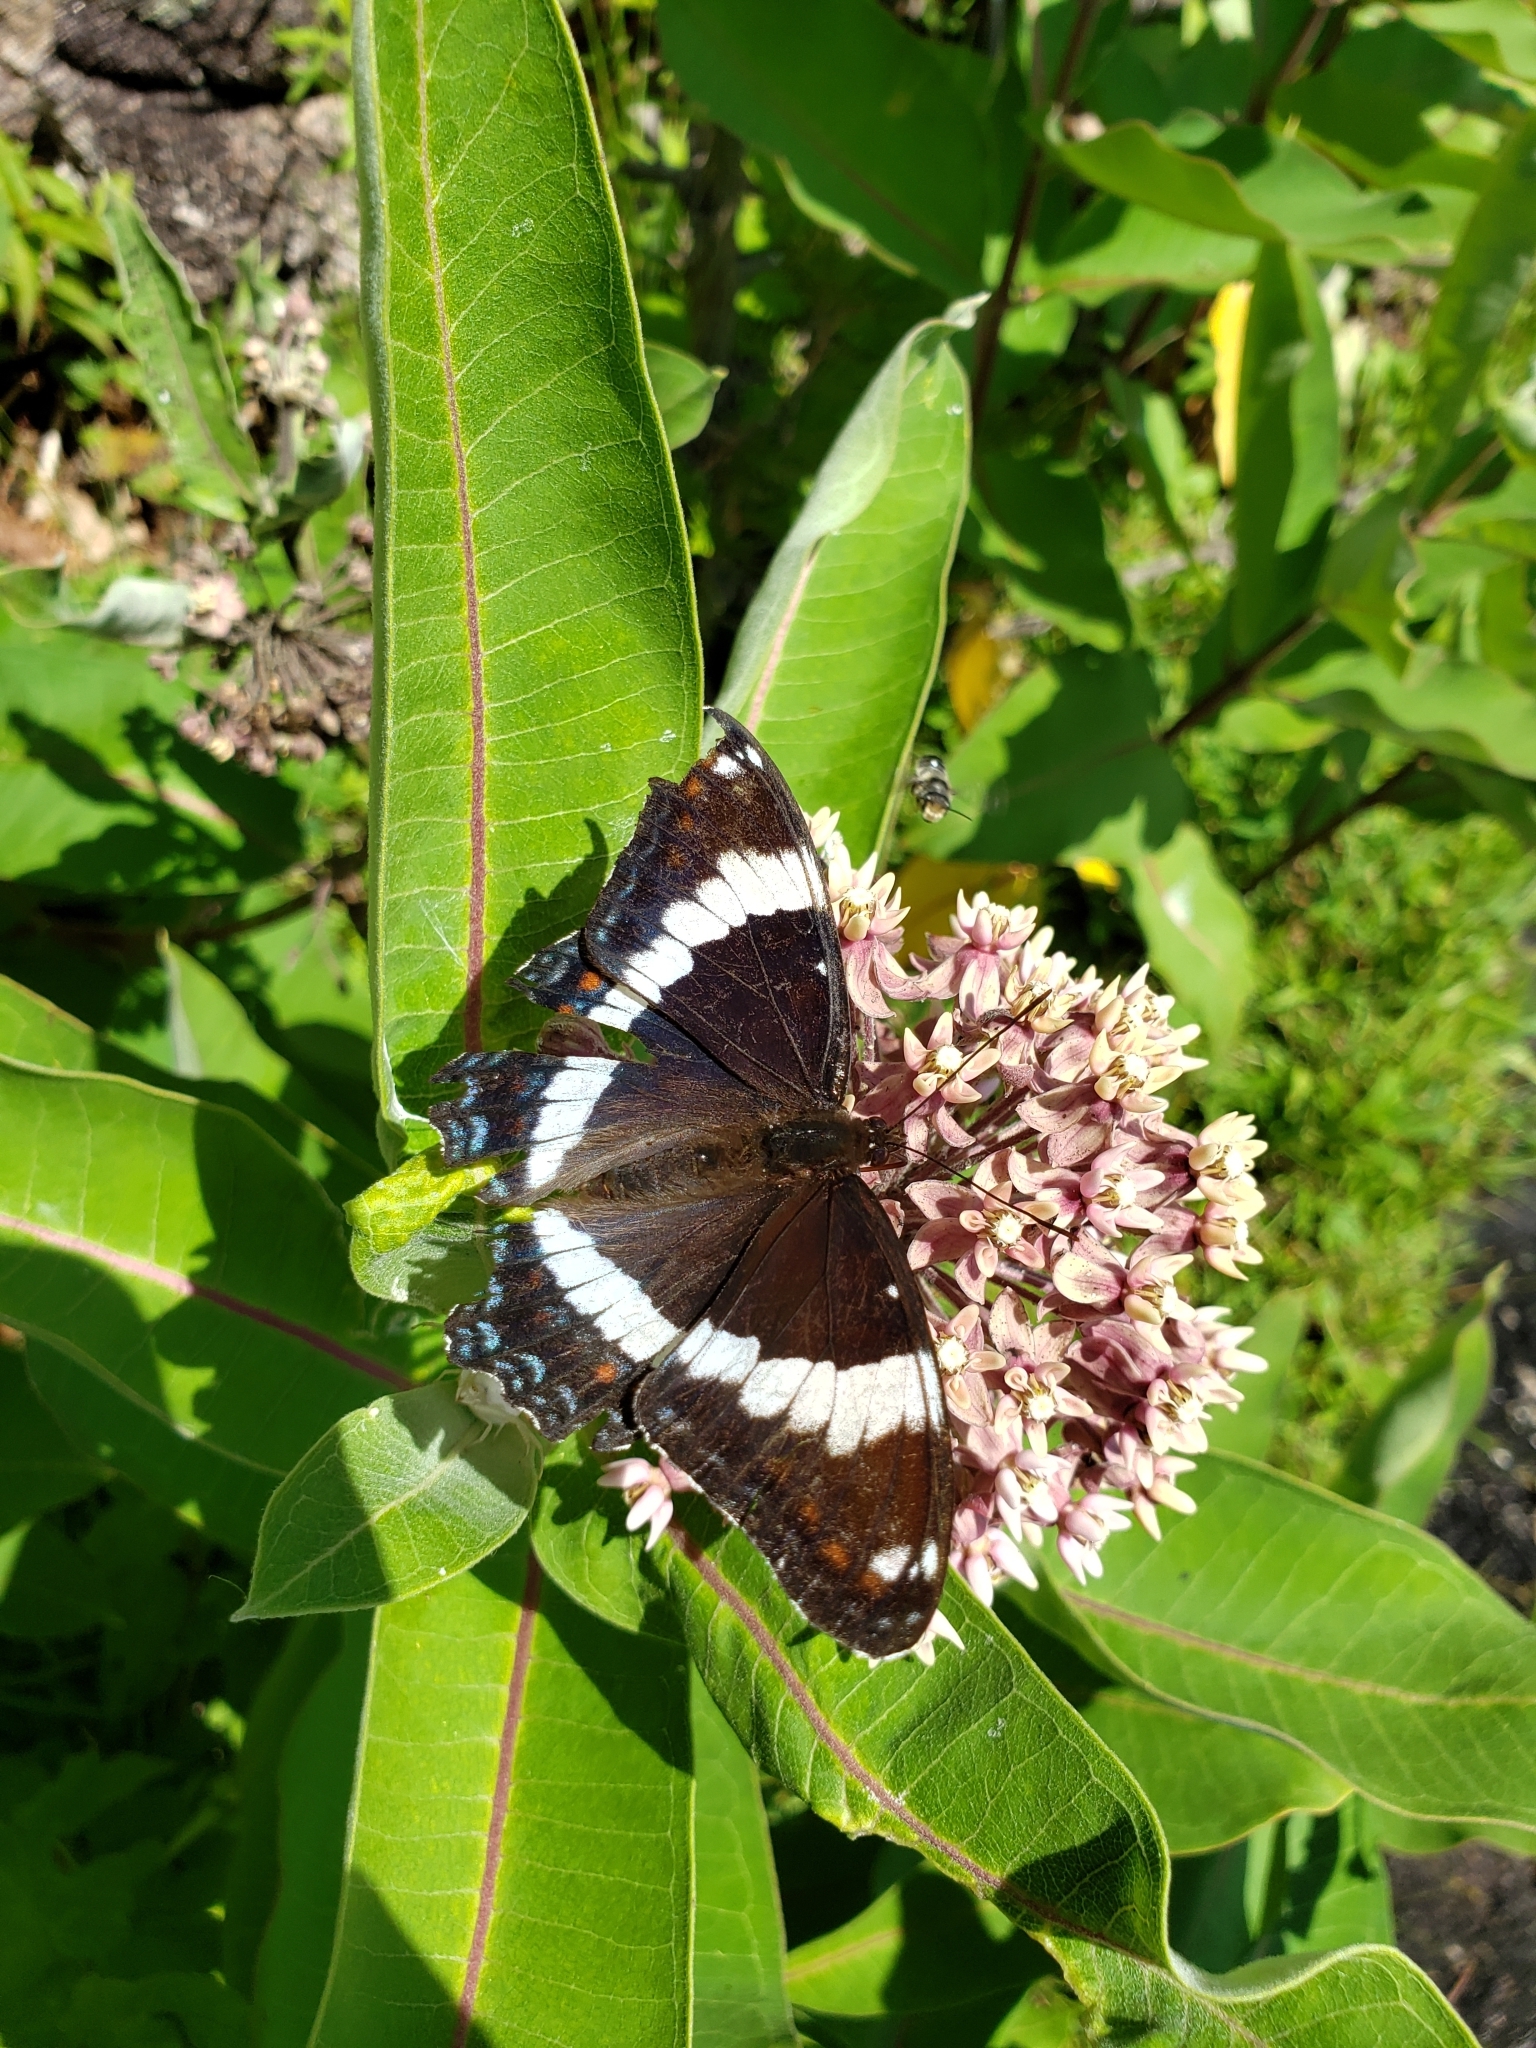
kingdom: Animalia
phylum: Arthropoda
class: Insecta
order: Lepidoptera
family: Nymphalidae
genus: Limenitis
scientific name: Limenitis arthemis
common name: Red-spotted admiral
